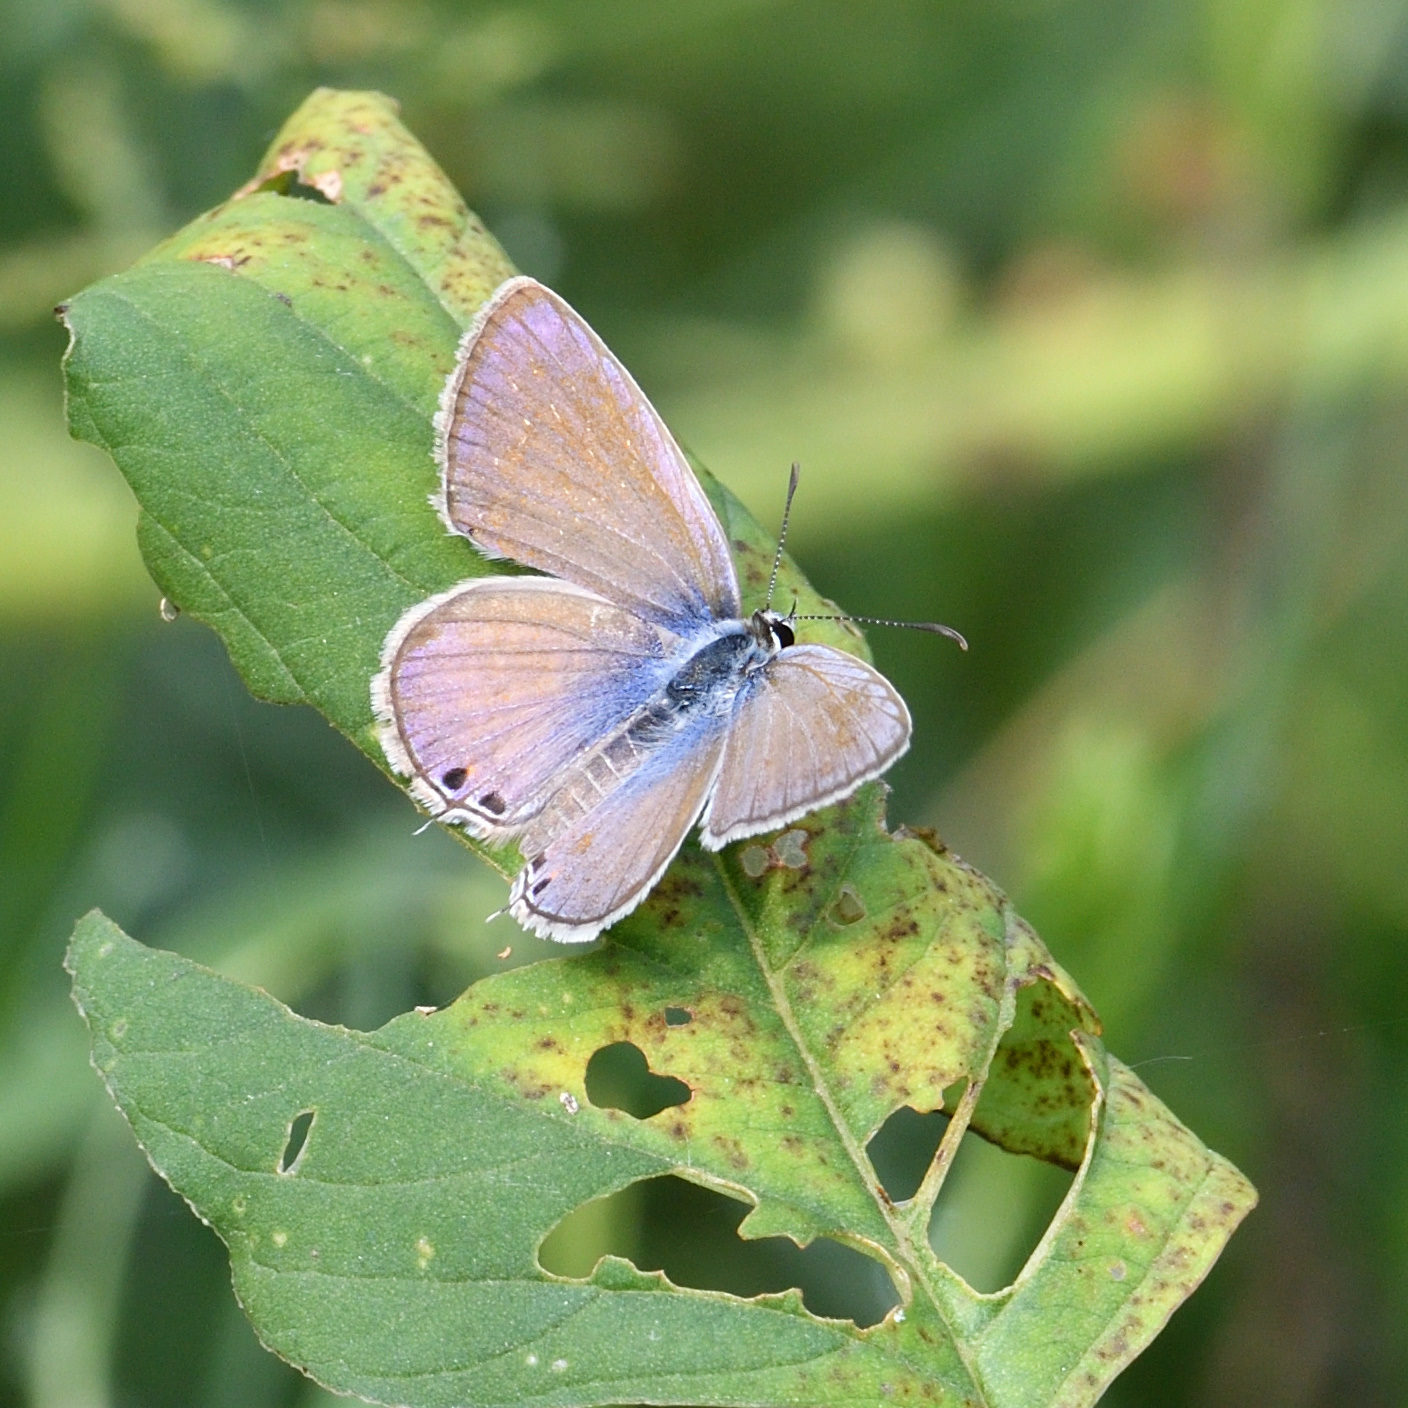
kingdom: Animalia
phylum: Arthropoda
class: Insecta
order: Lepidoptera
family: Lycaenidae
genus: Luthrodes
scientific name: Luthrodes pandava
